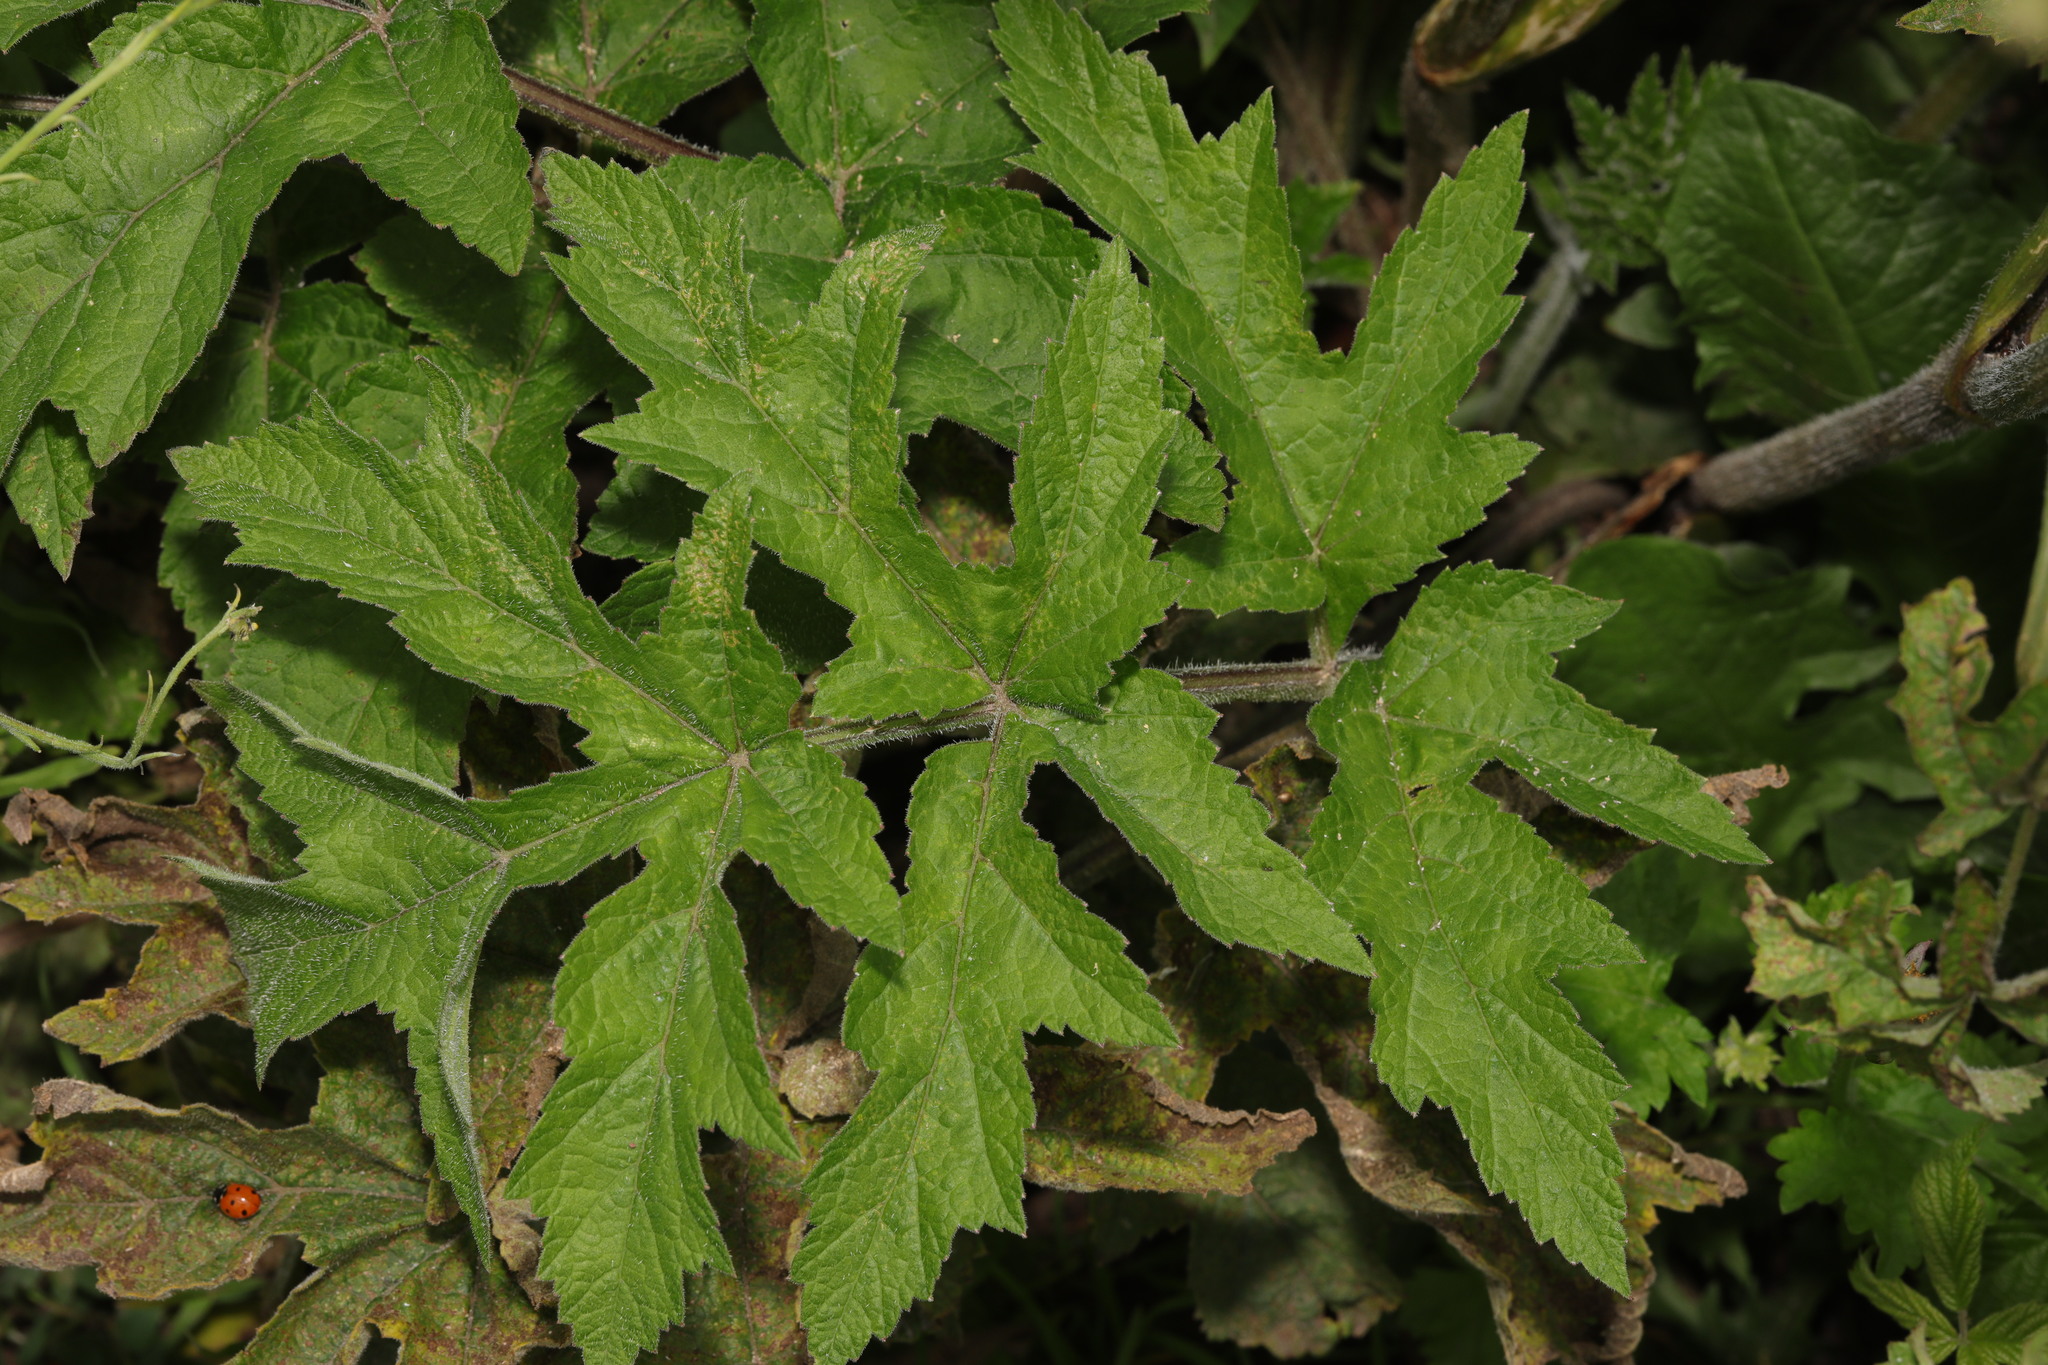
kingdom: Animalia
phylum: Arthropoda
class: Insecta
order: Coleoptera
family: Coccinellidae
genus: Coccinella
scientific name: Coccinella septempunctata
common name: Sevenspotted lady beetle
